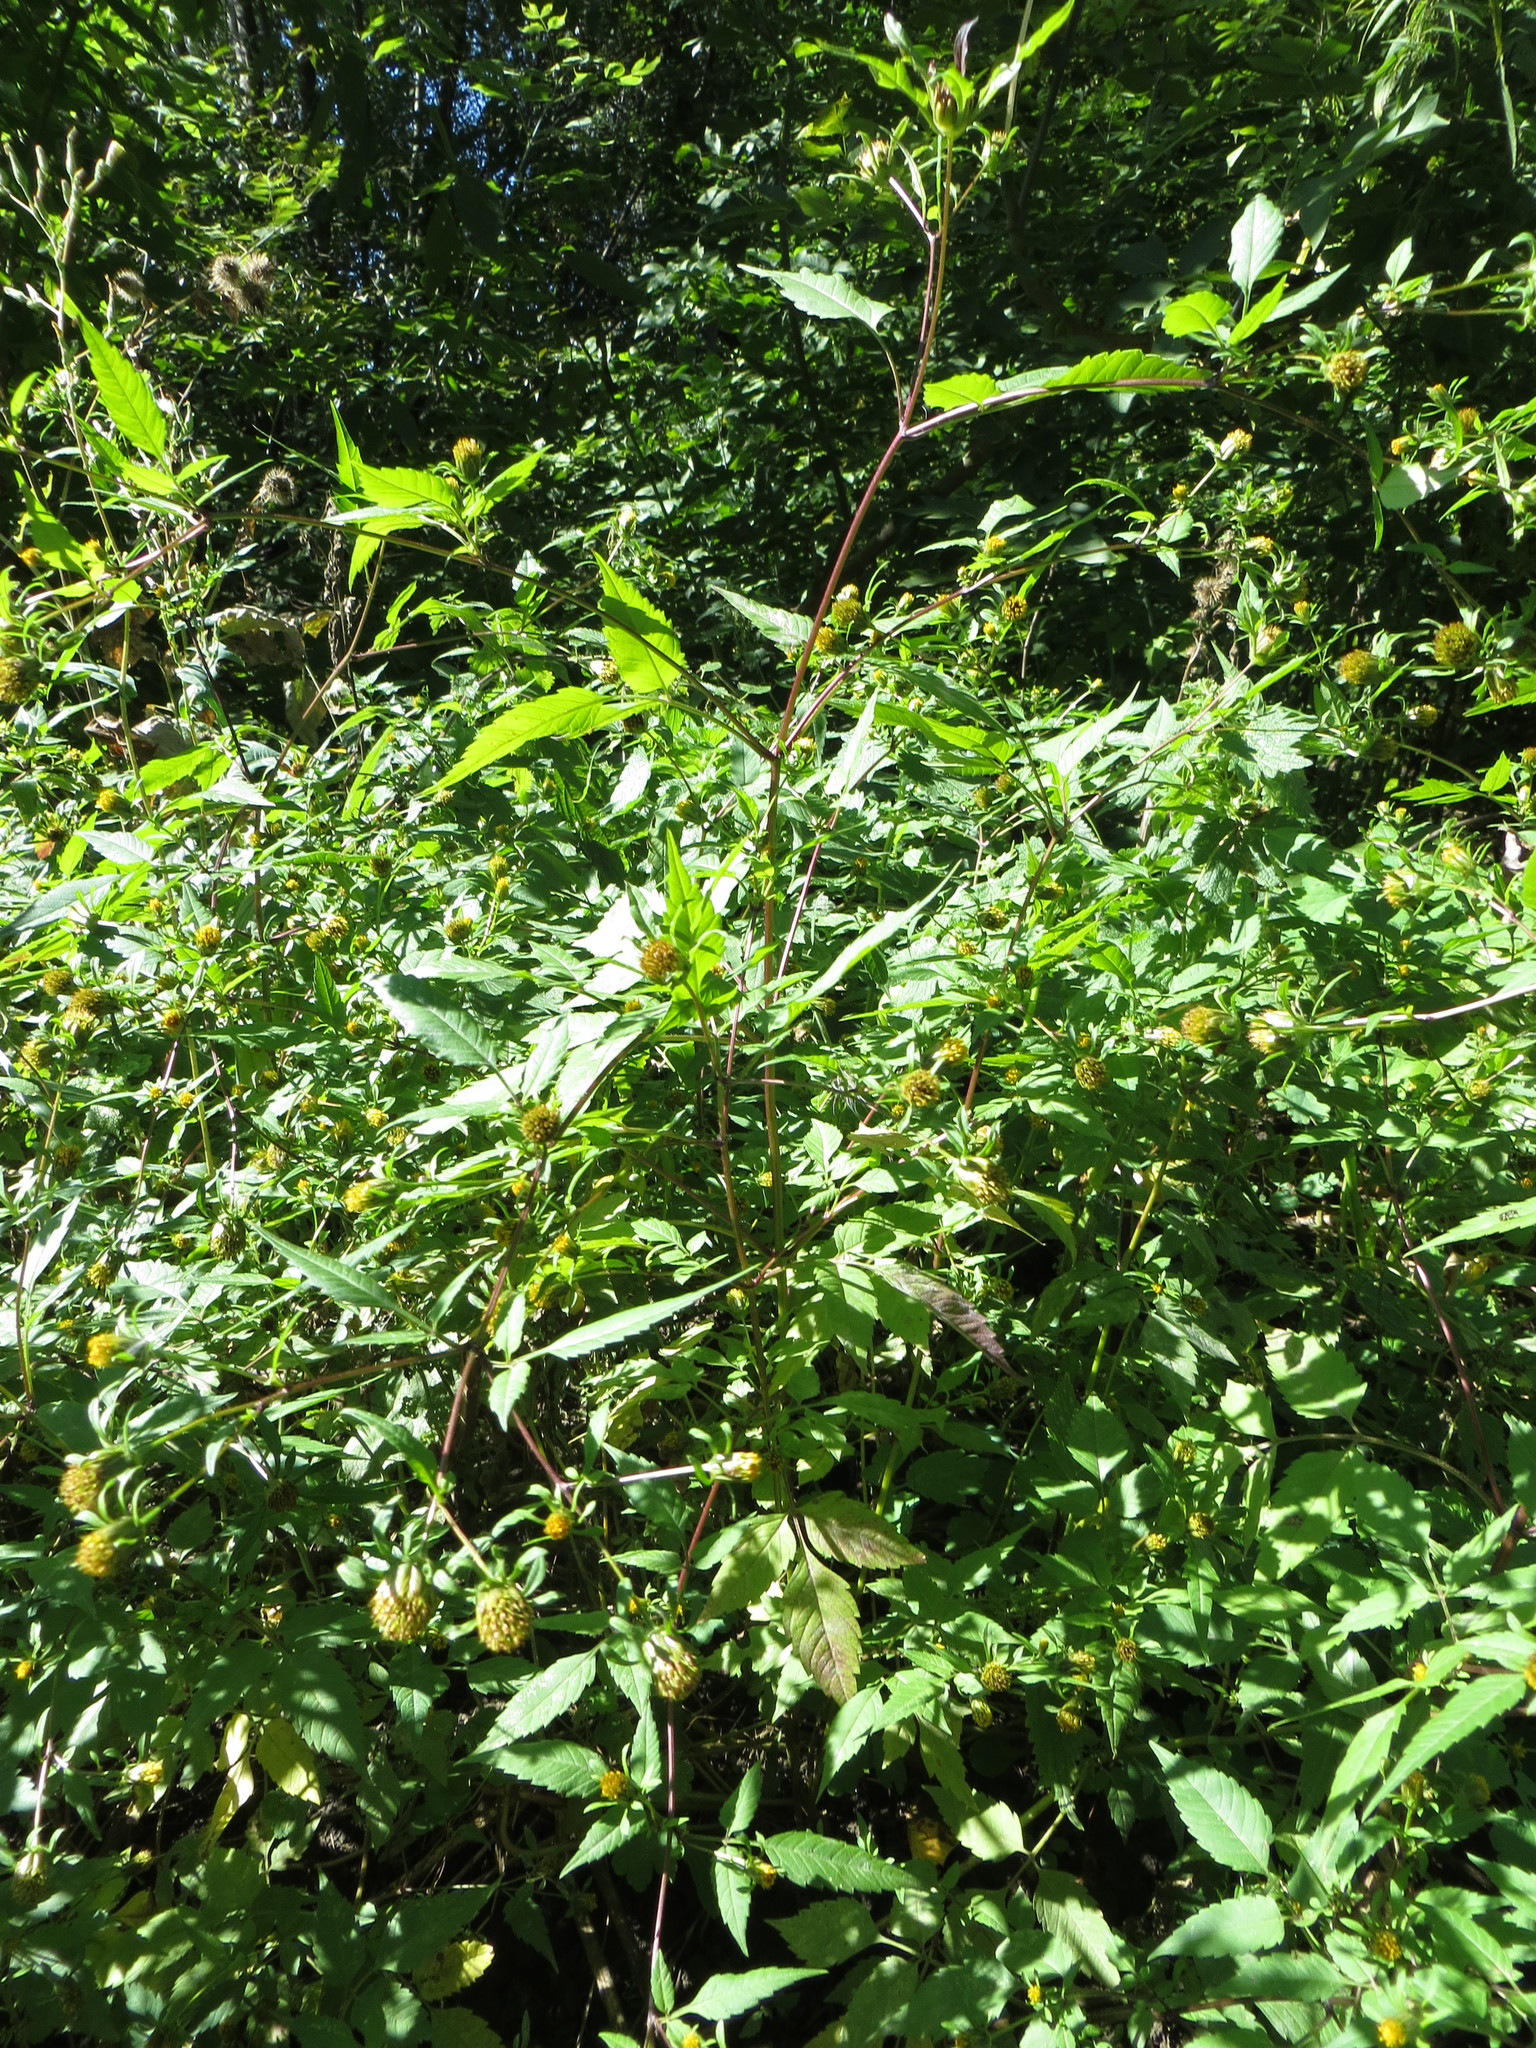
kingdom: Plantae
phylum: Tracheophyta
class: Magnoliopsida
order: Asterales
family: Asteraceae
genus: Bidens
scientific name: Bidens frondosa
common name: Beggarticks
